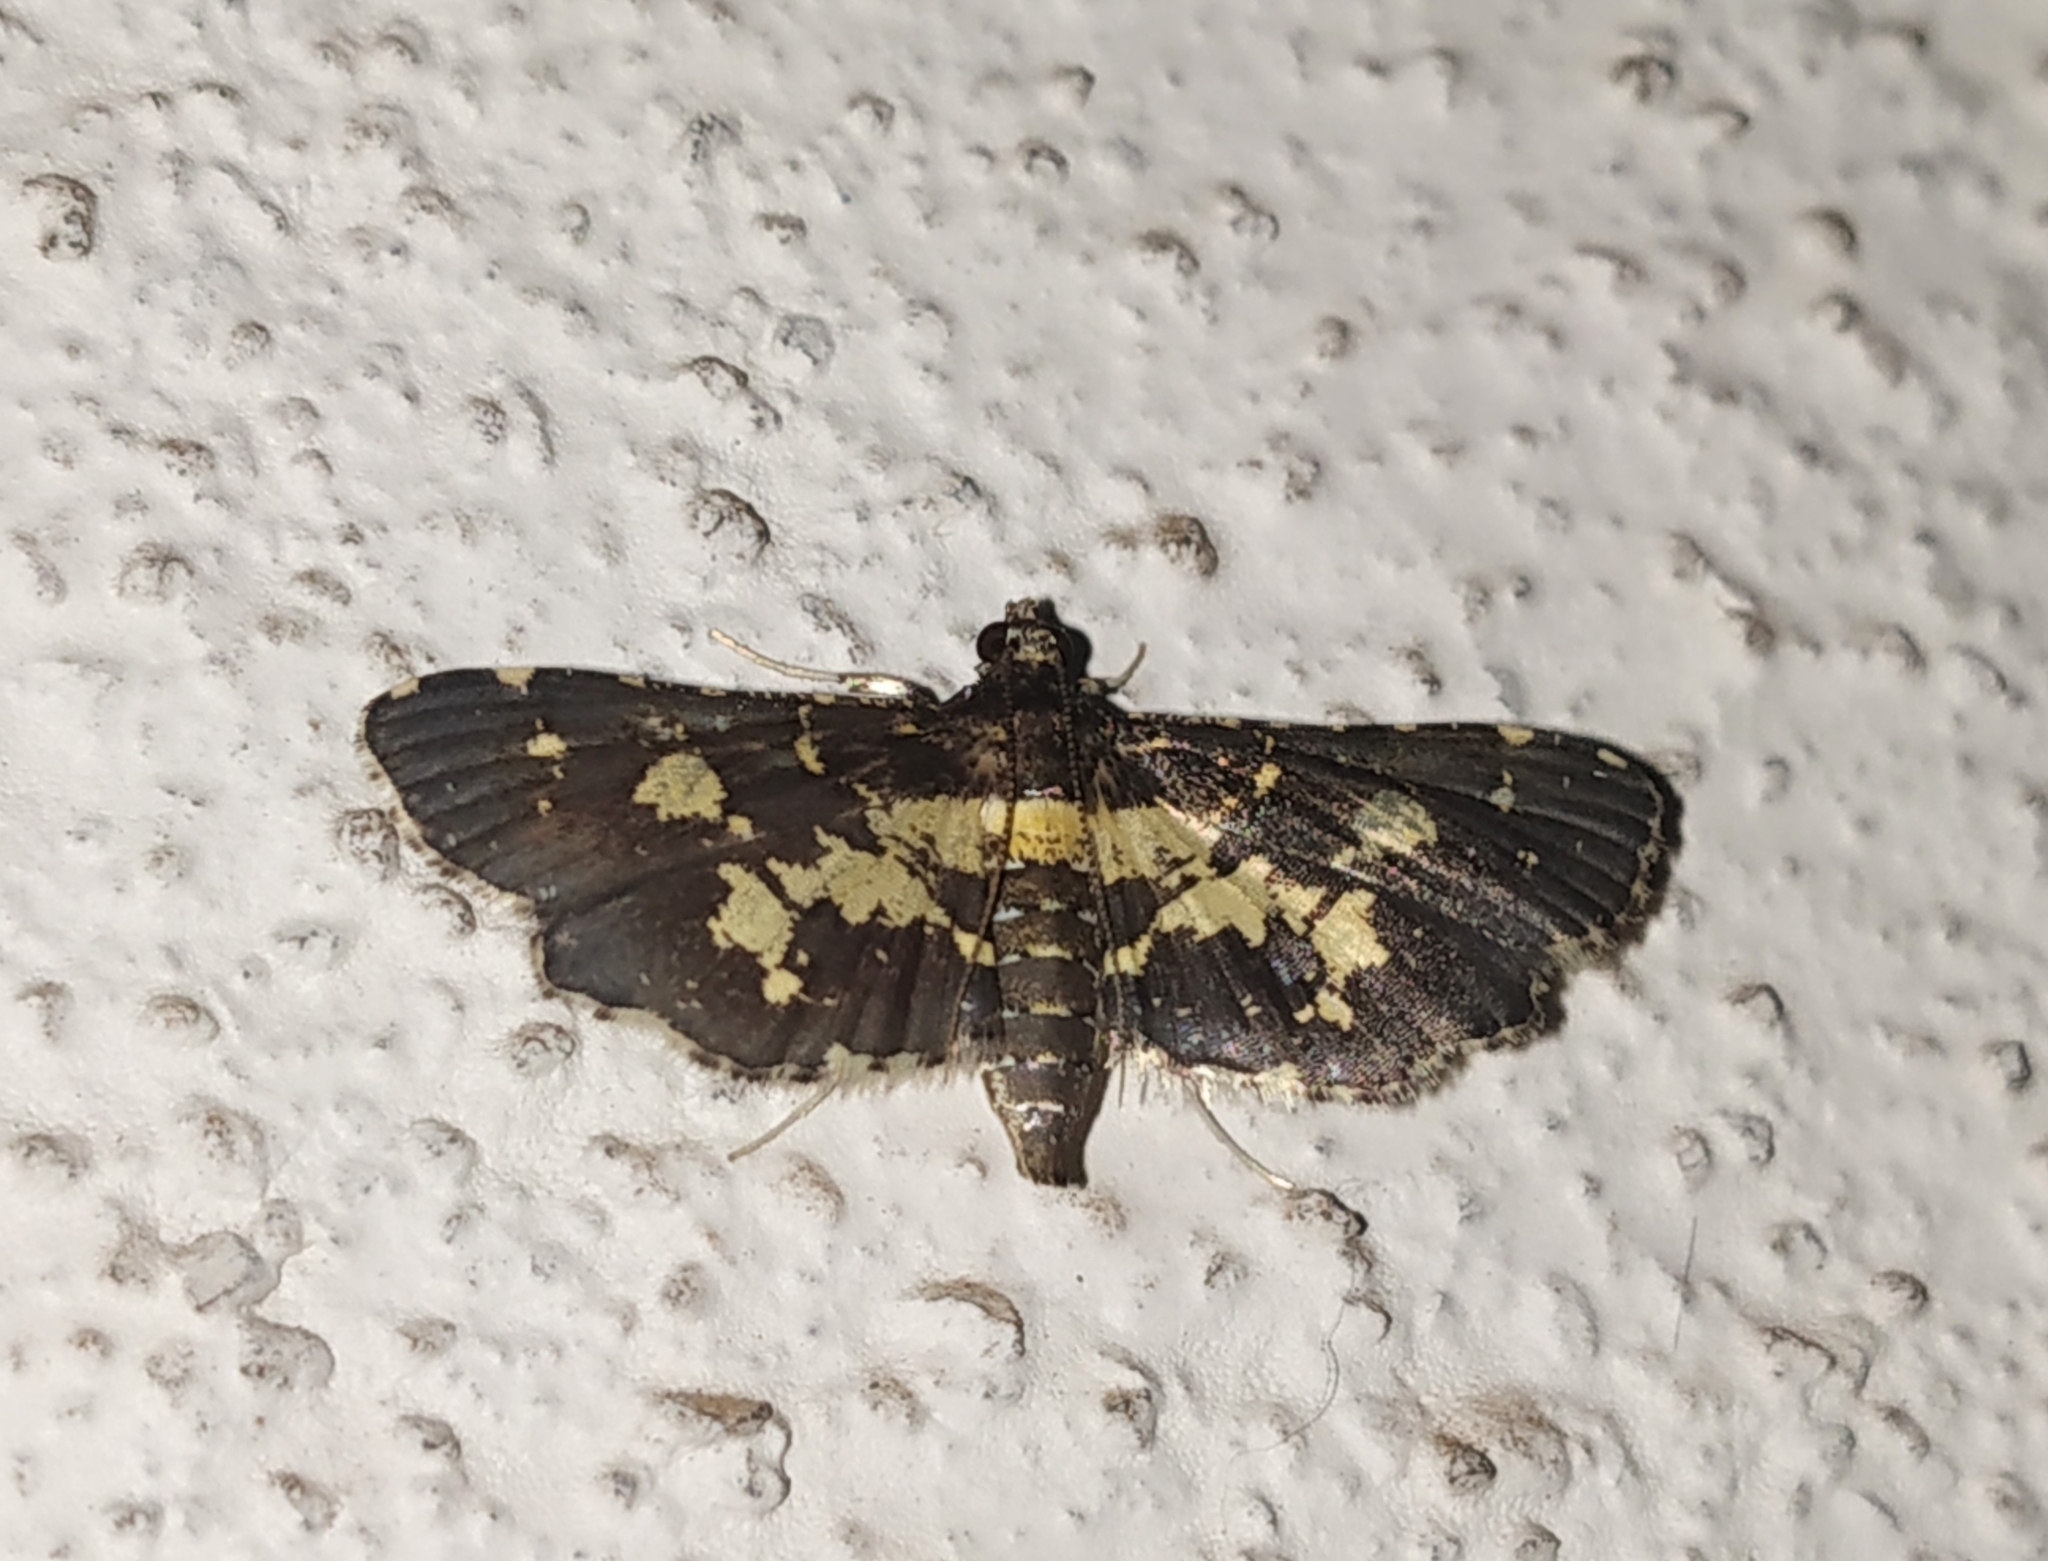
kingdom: Animalia
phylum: Arthropoda
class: Insecta
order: Lepidoptera
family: Crambidae
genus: Eurrhyparodes
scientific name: Eurrhyparodes bracteolalis
